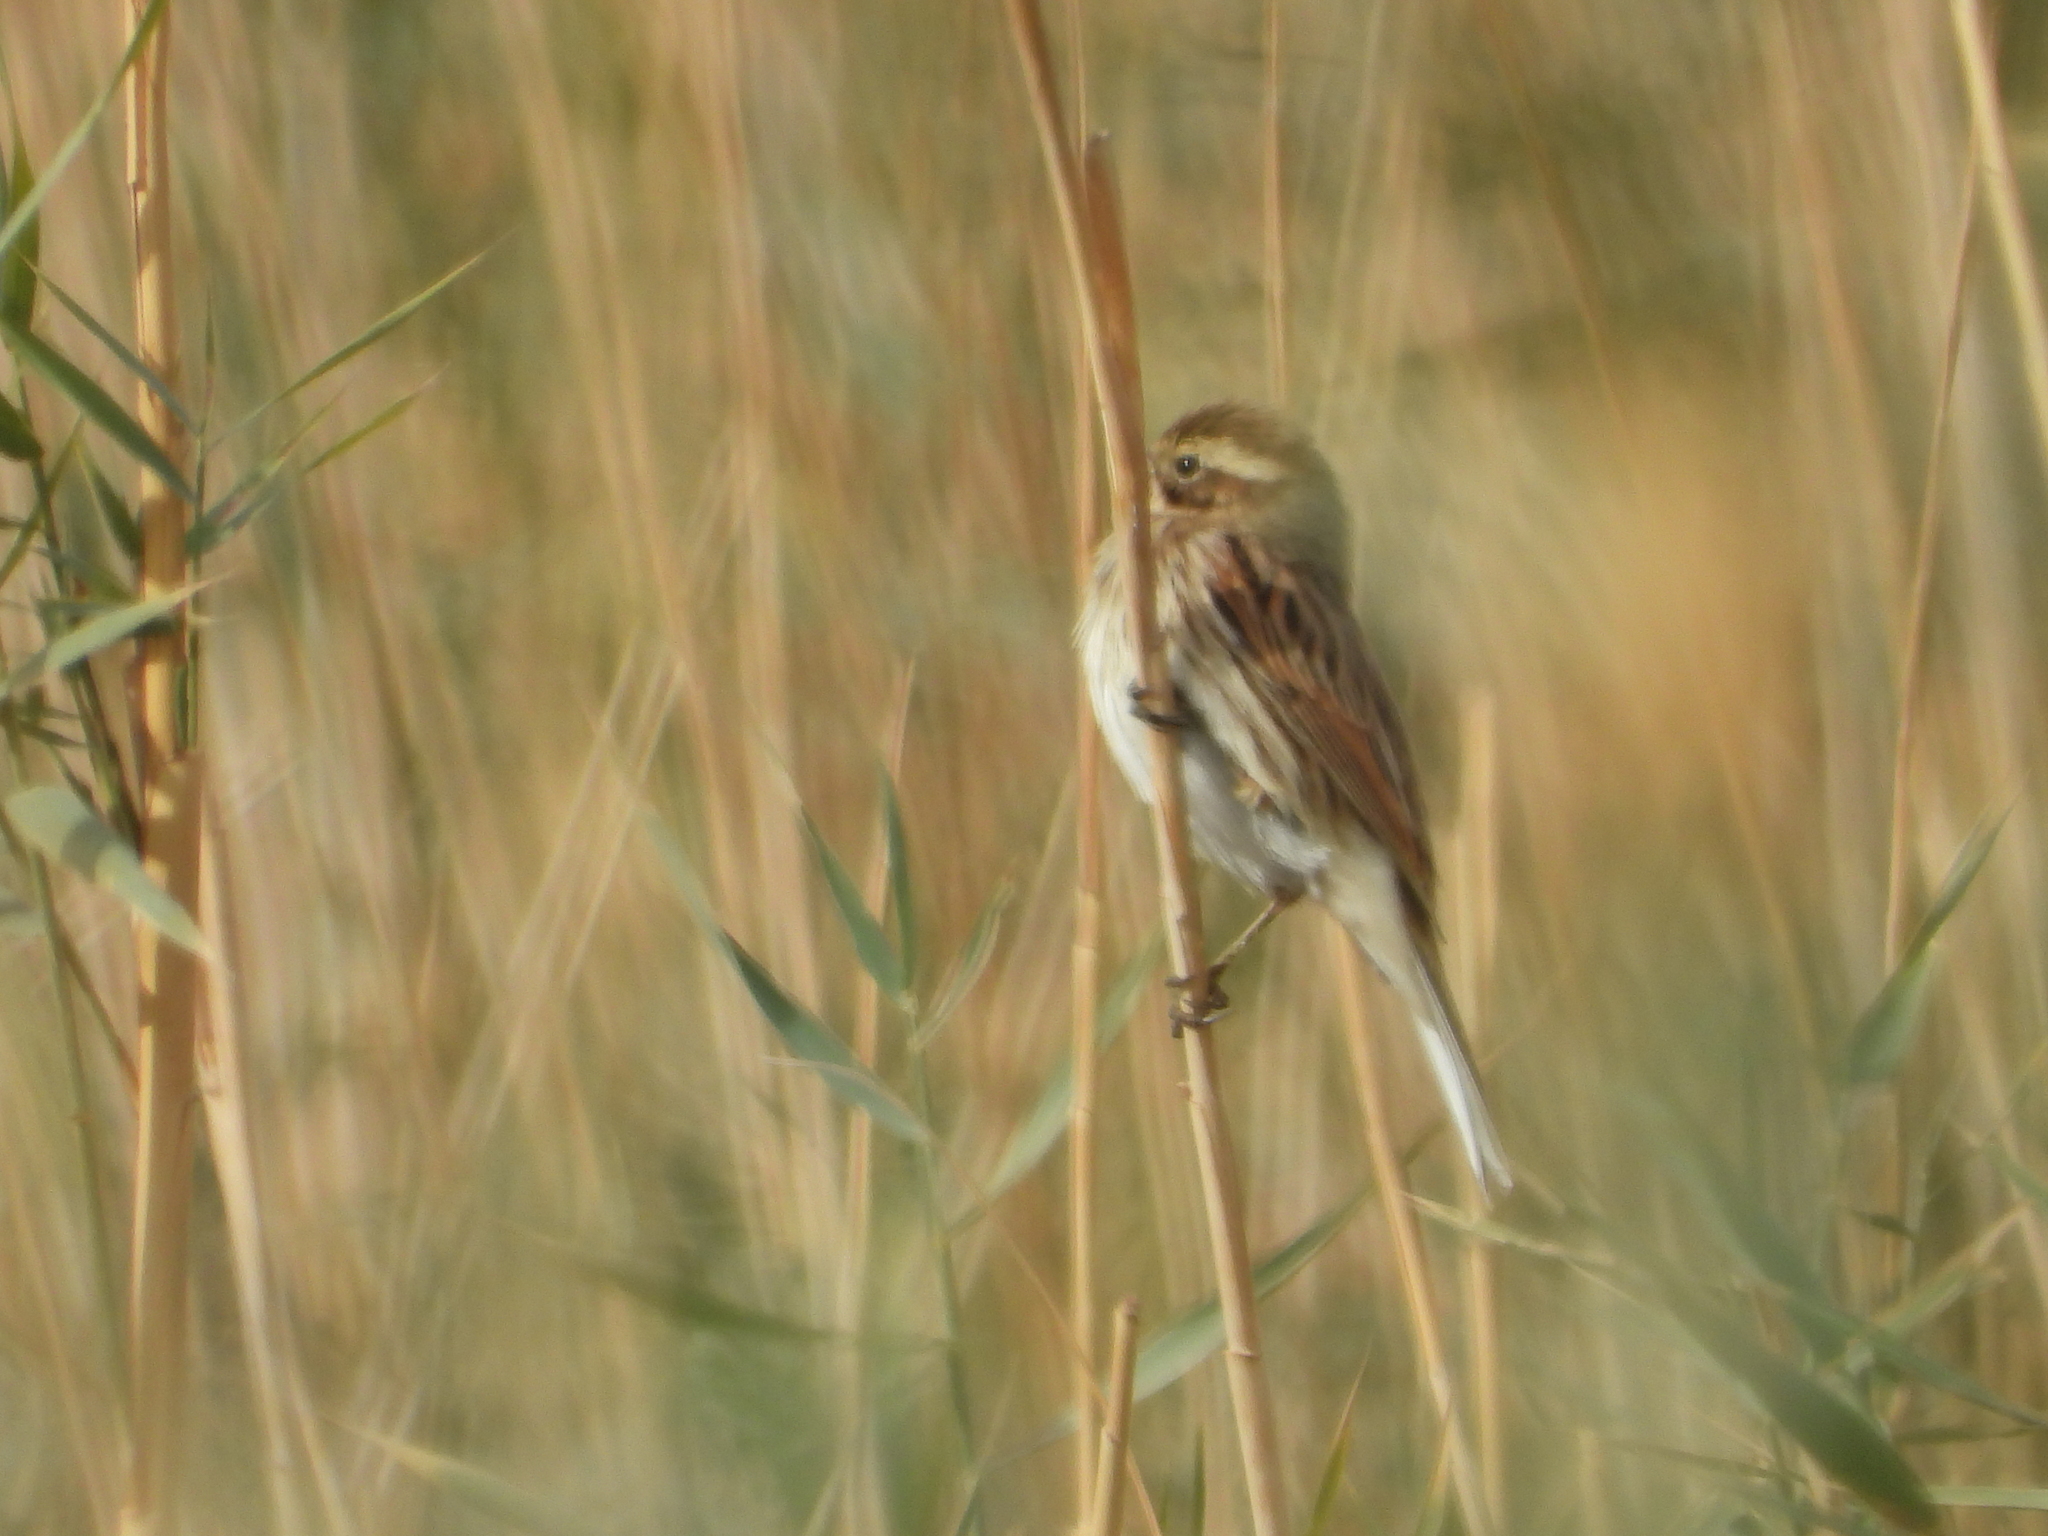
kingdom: Animalia
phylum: Chordata
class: Aves
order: Passeriformes
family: Emberizidae
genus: Emberiza
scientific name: Emberiza schoeniclus
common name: Reed bunting
